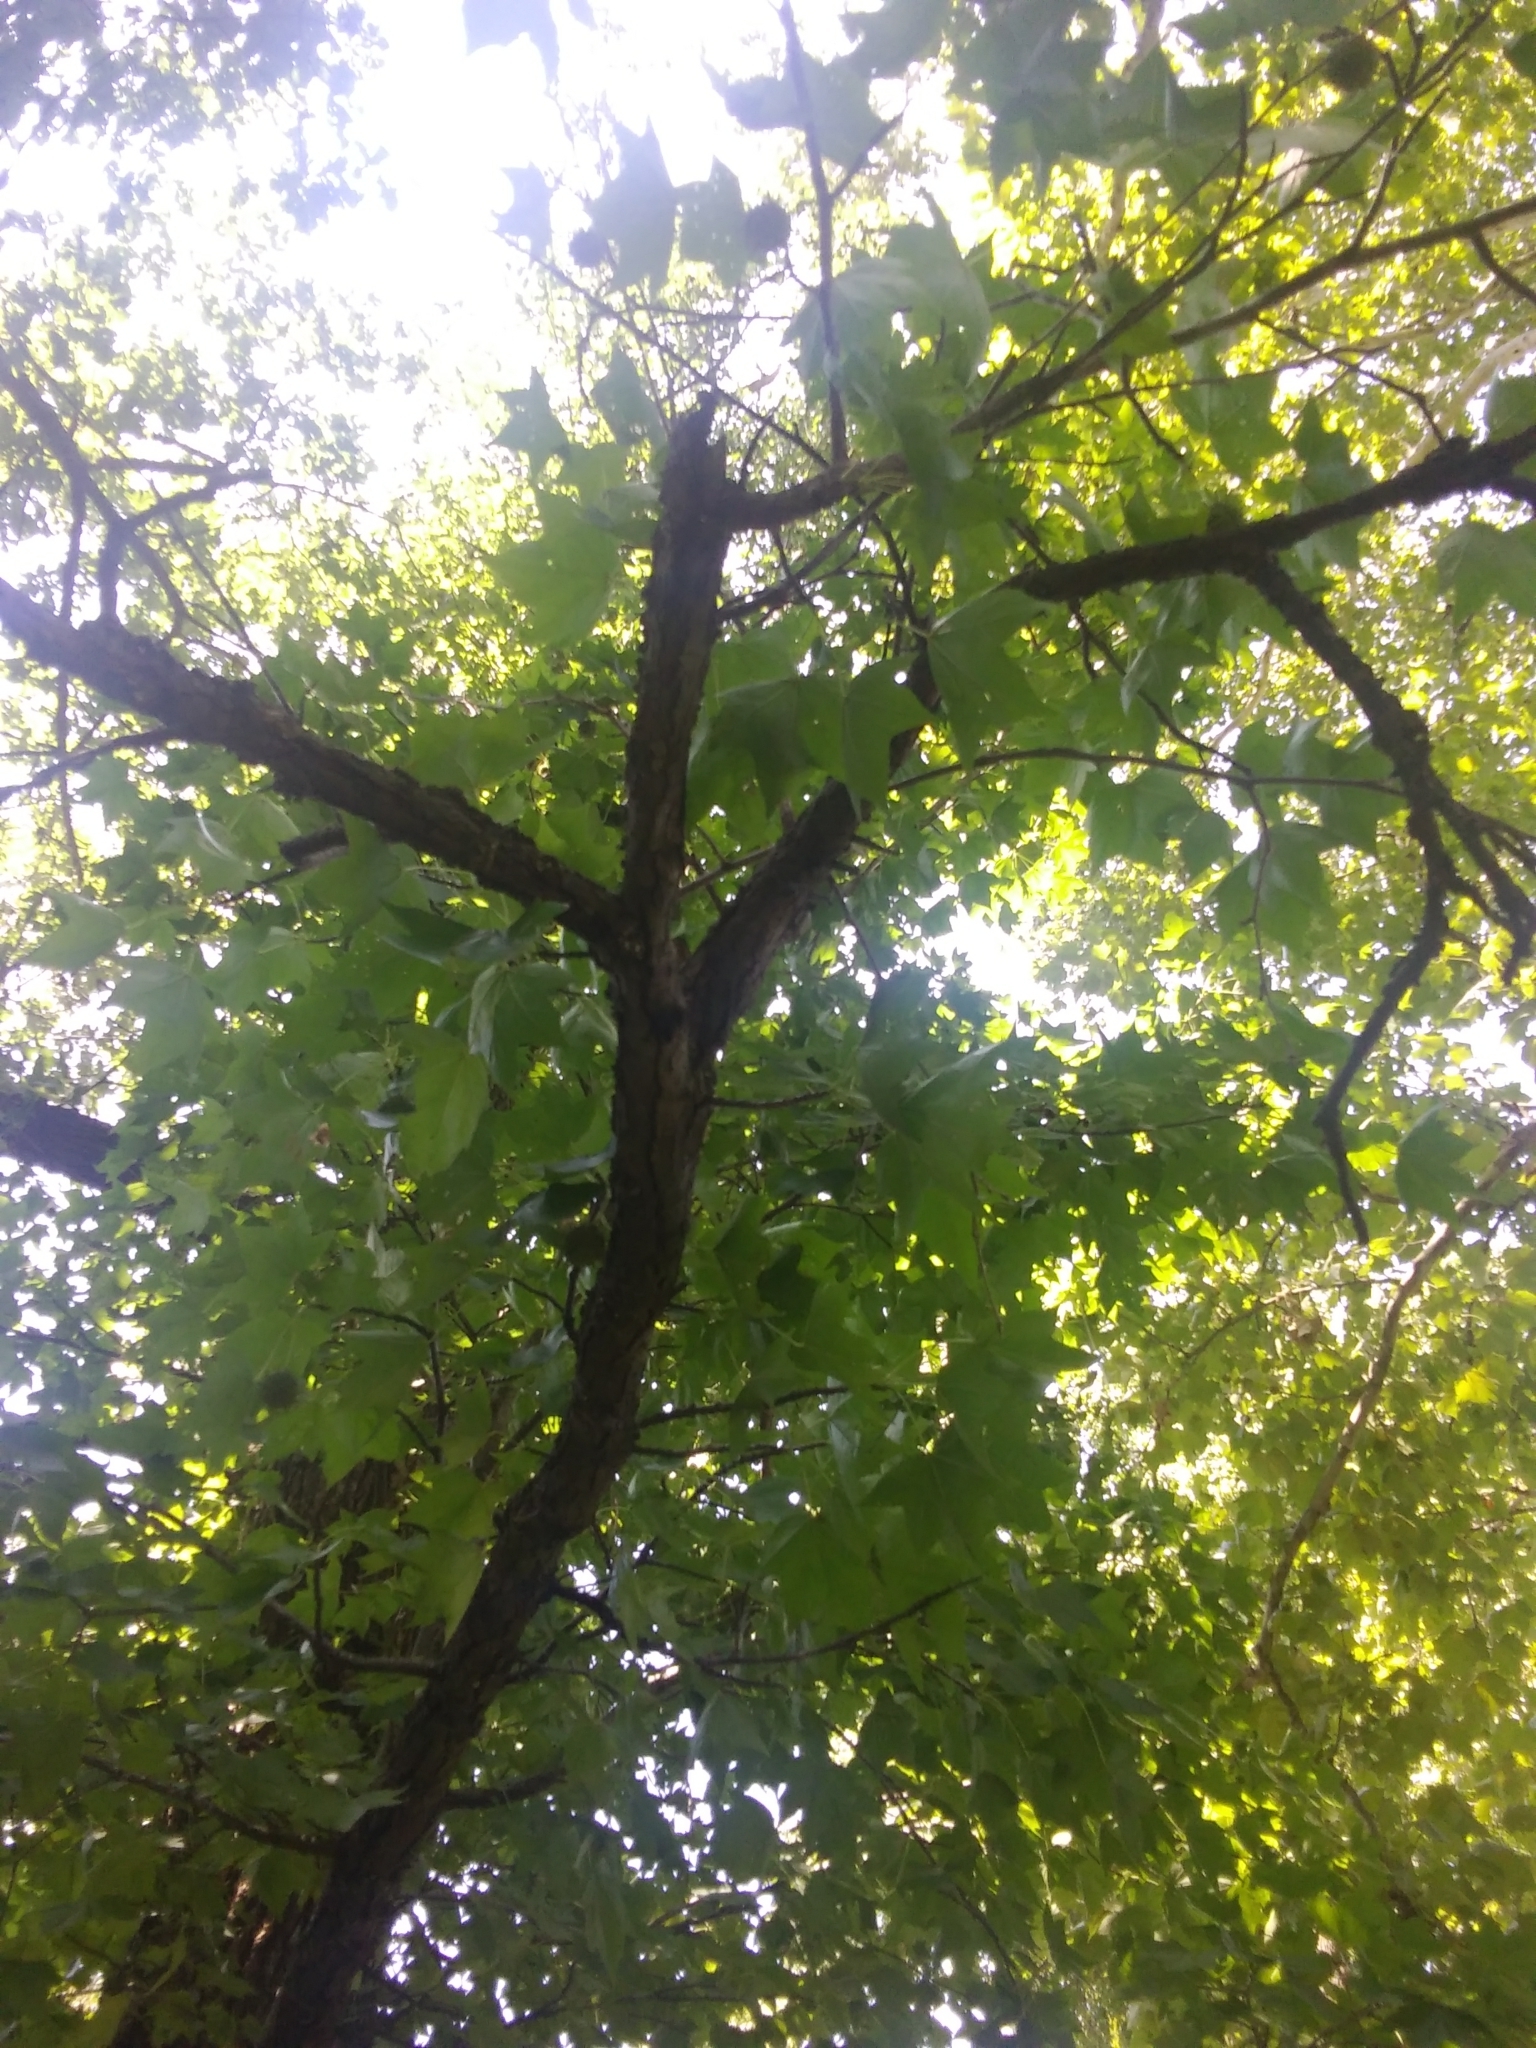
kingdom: Plantae
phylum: Tracheophyta
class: Magnoliopsida
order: Saxifragales
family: Altingiaceae
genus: Liquidambar
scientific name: Liquidambar styraciflua
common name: Sweet gum
